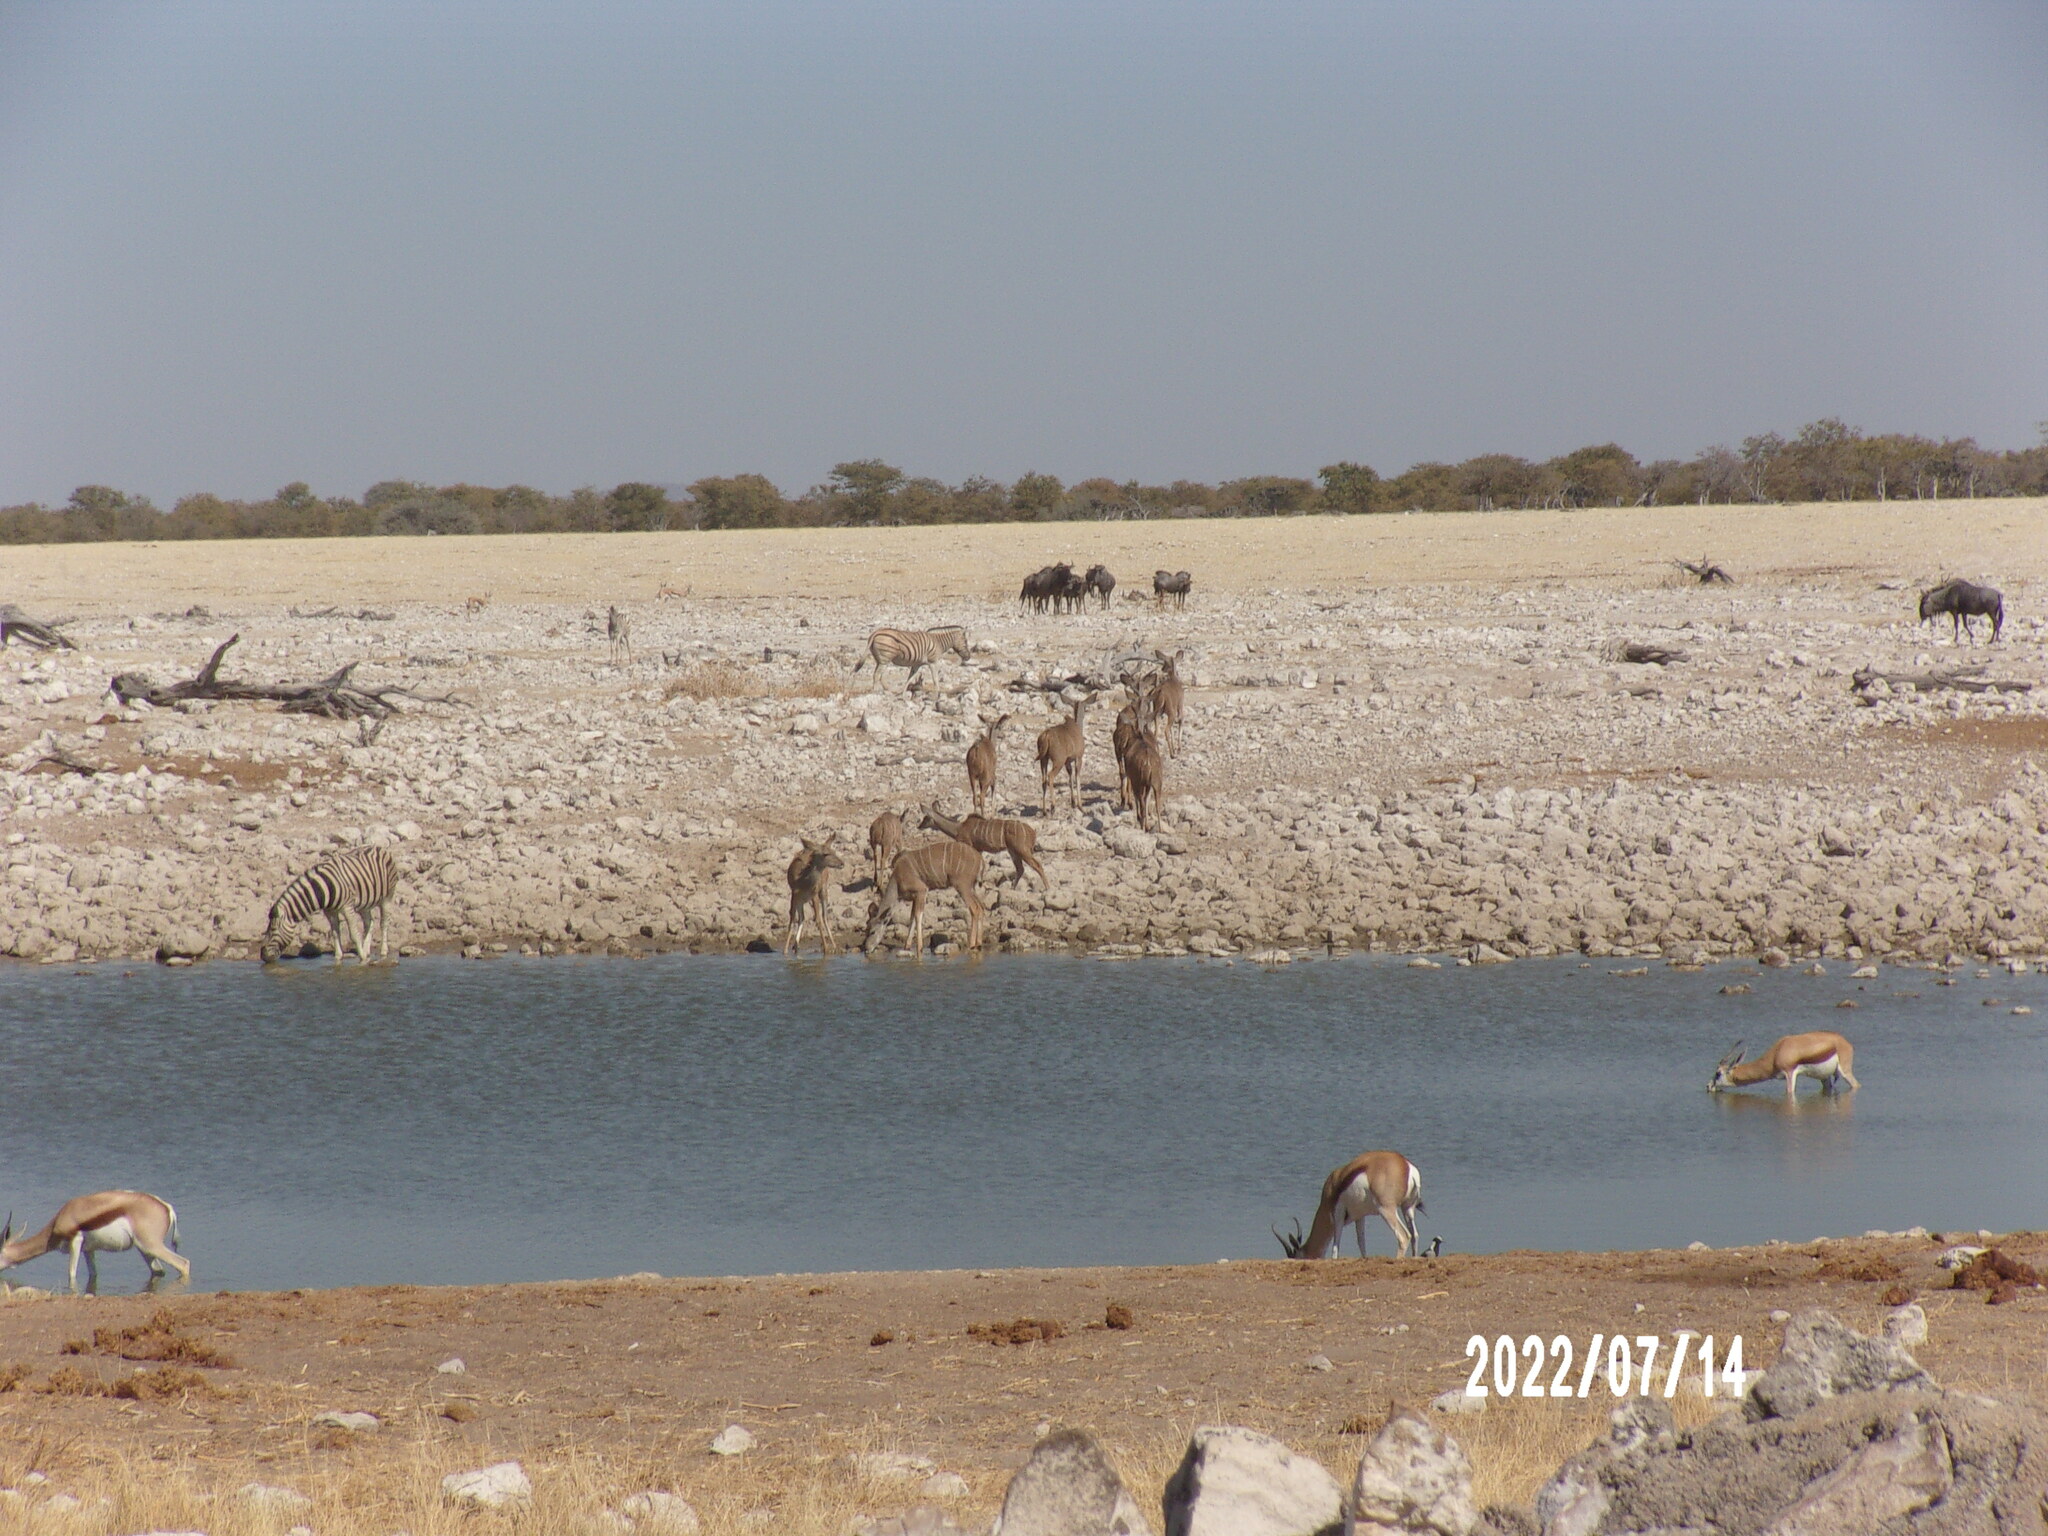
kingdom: Animalia
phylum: Chordata
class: Mammalia
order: Artiodactyla
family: Bovidae
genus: Tragelaphus
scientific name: Tragelaphus strepsiceros
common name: Greater kudu
